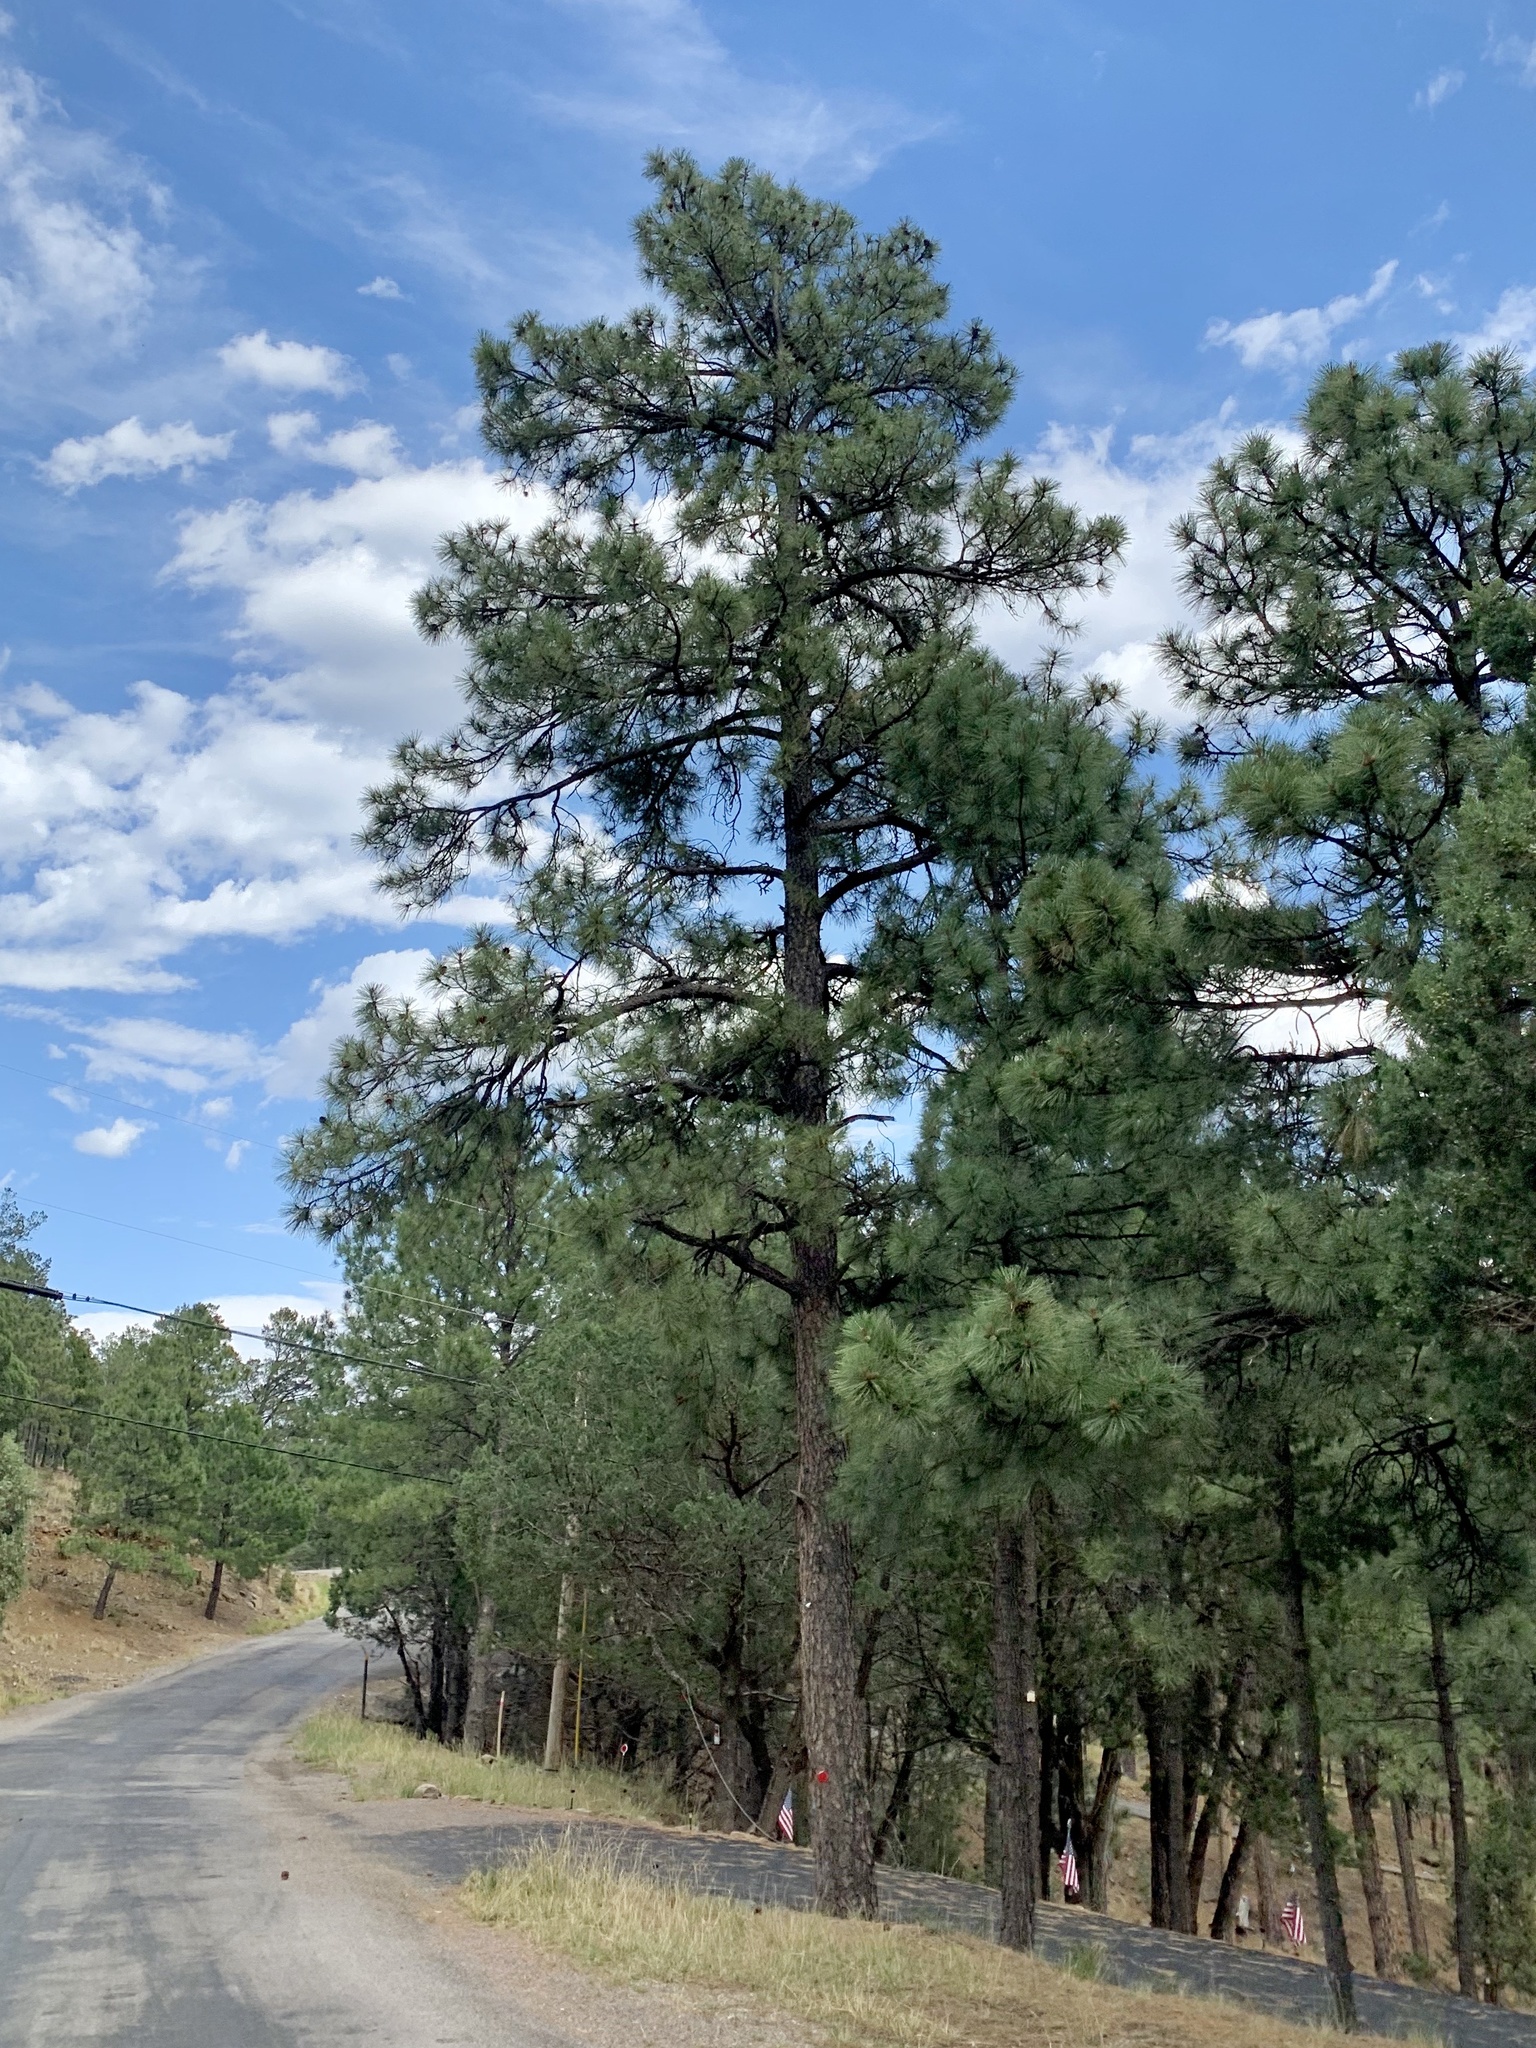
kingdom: Plantae
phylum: Tracheophyta
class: Pinopsida
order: Pinales
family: Pinaceae
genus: Pinus
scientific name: Pinus ponderosa
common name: Western yellow-pine
